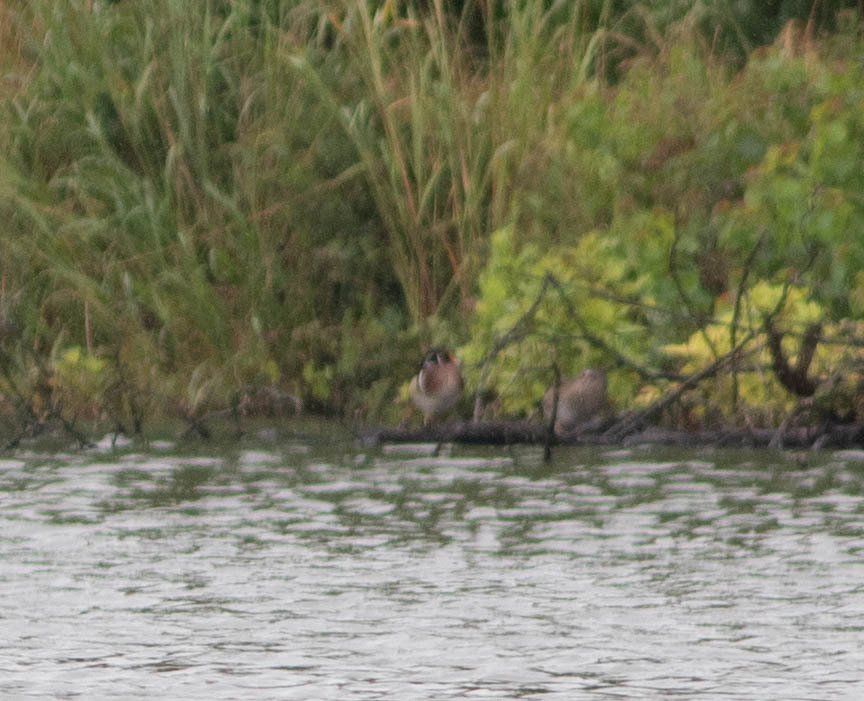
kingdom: Animalia
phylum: Chordata
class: Aves
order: Anseriformes
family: Anatidae
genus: Aix
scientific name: Aix sponsa
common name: Wood duck
